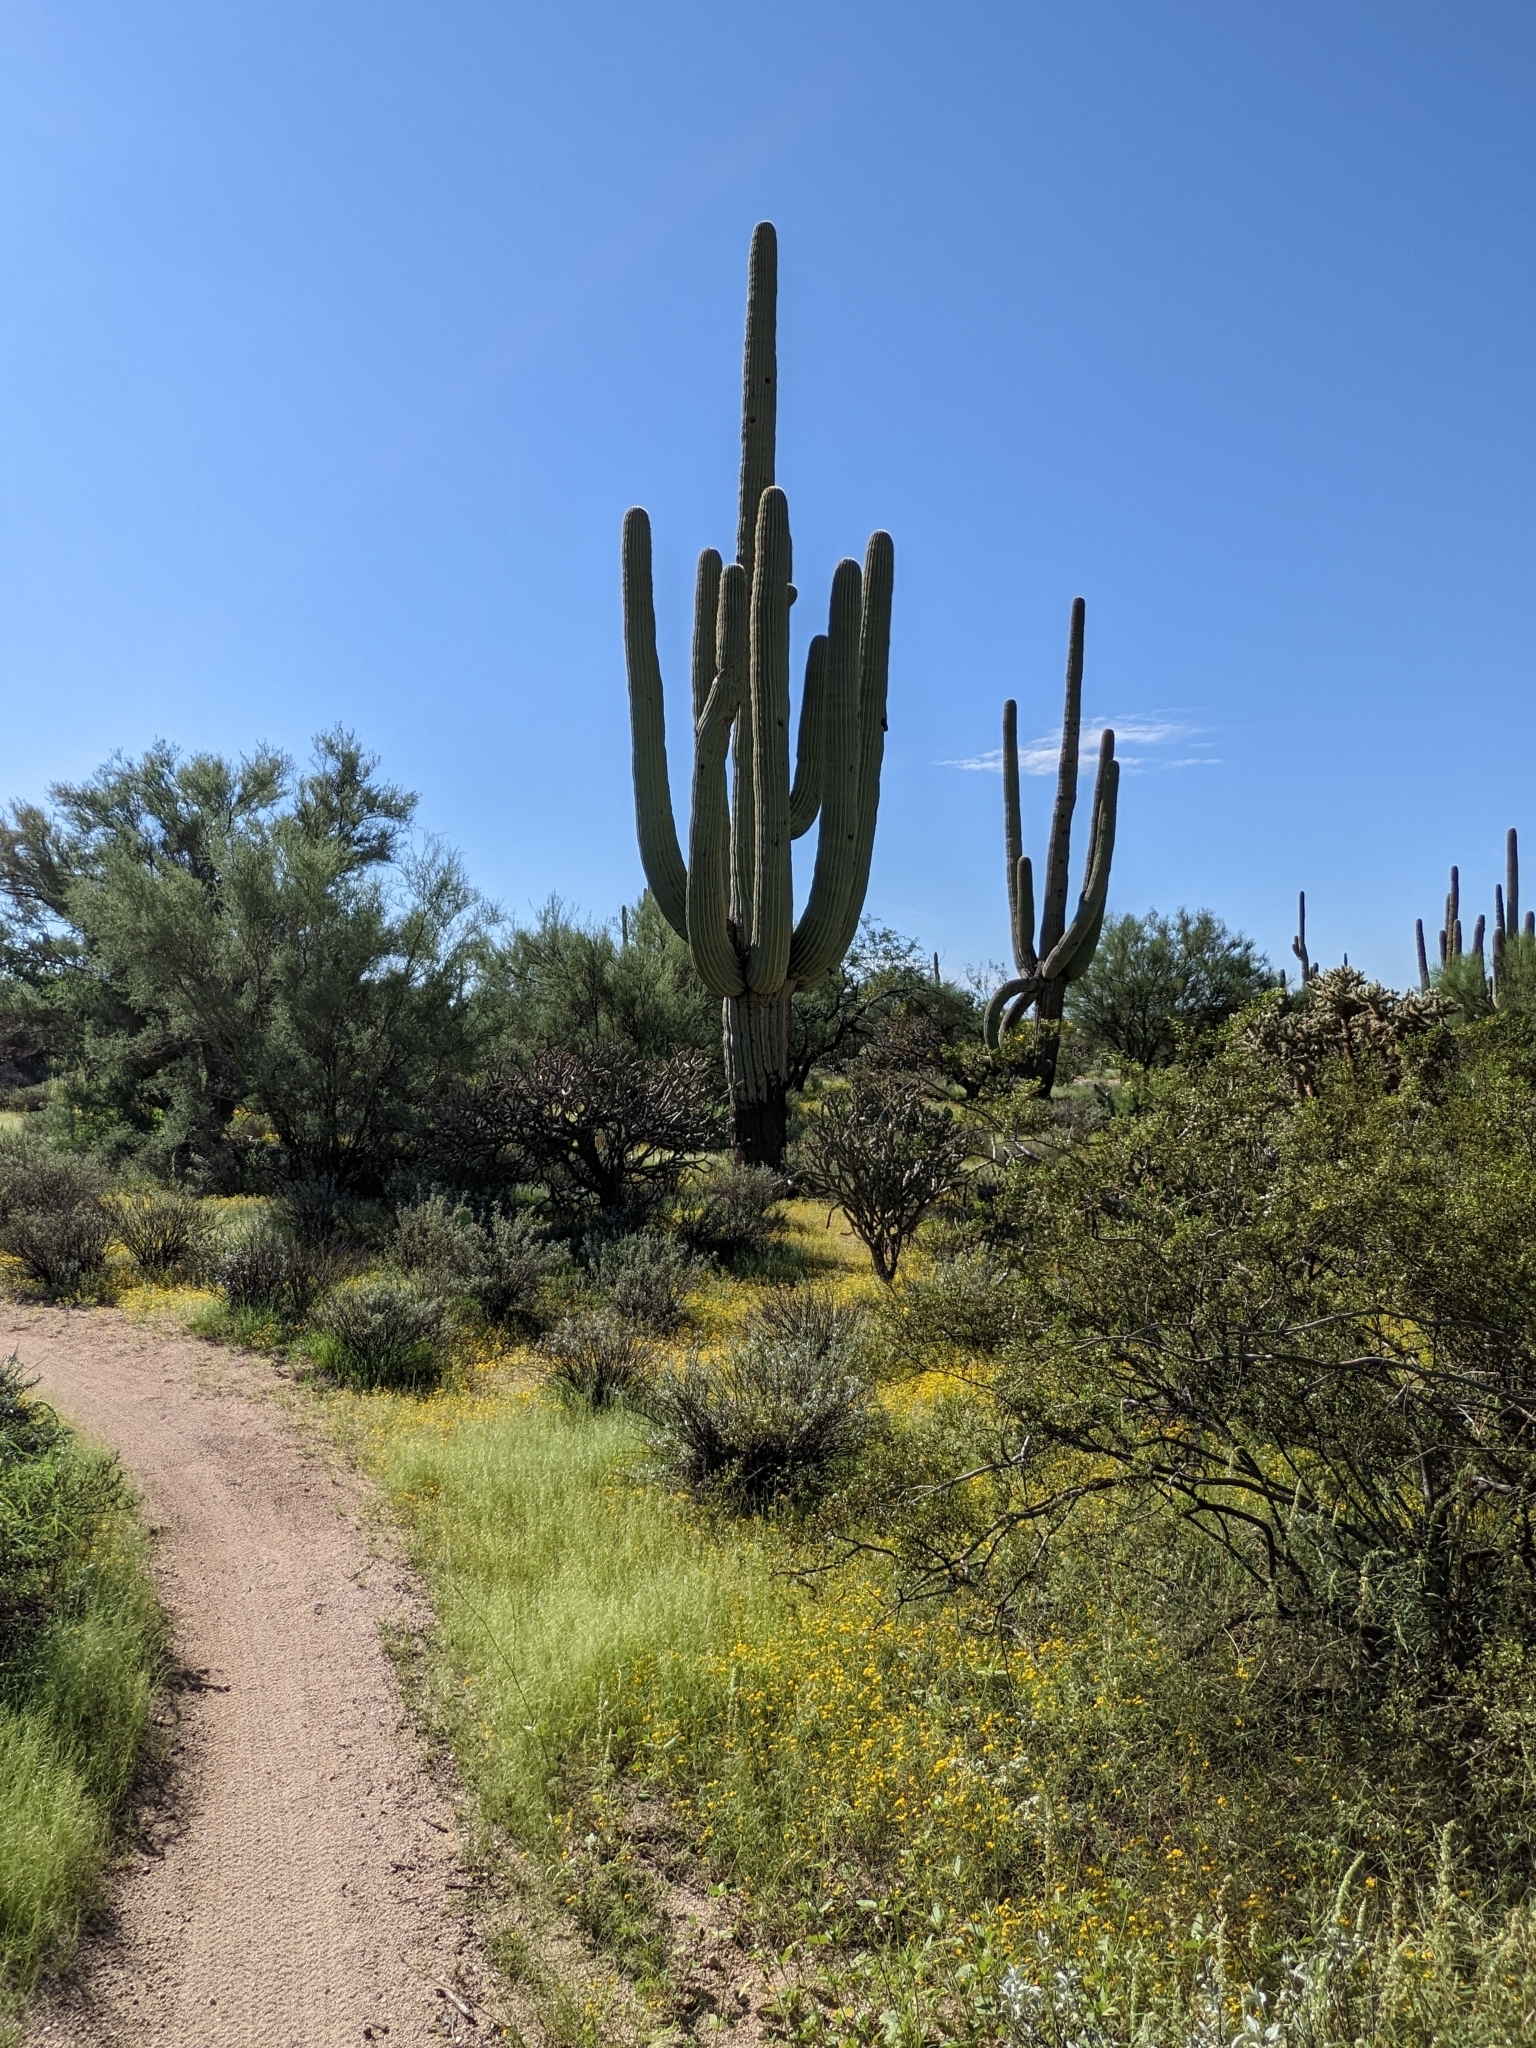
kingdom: Plantae
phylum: Tracheophyta
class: Magnoliopsida
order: Caryophyllales
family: Cactaceae
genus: Carnegiea
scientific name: Carnegiea gigantea
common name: Saguaro
